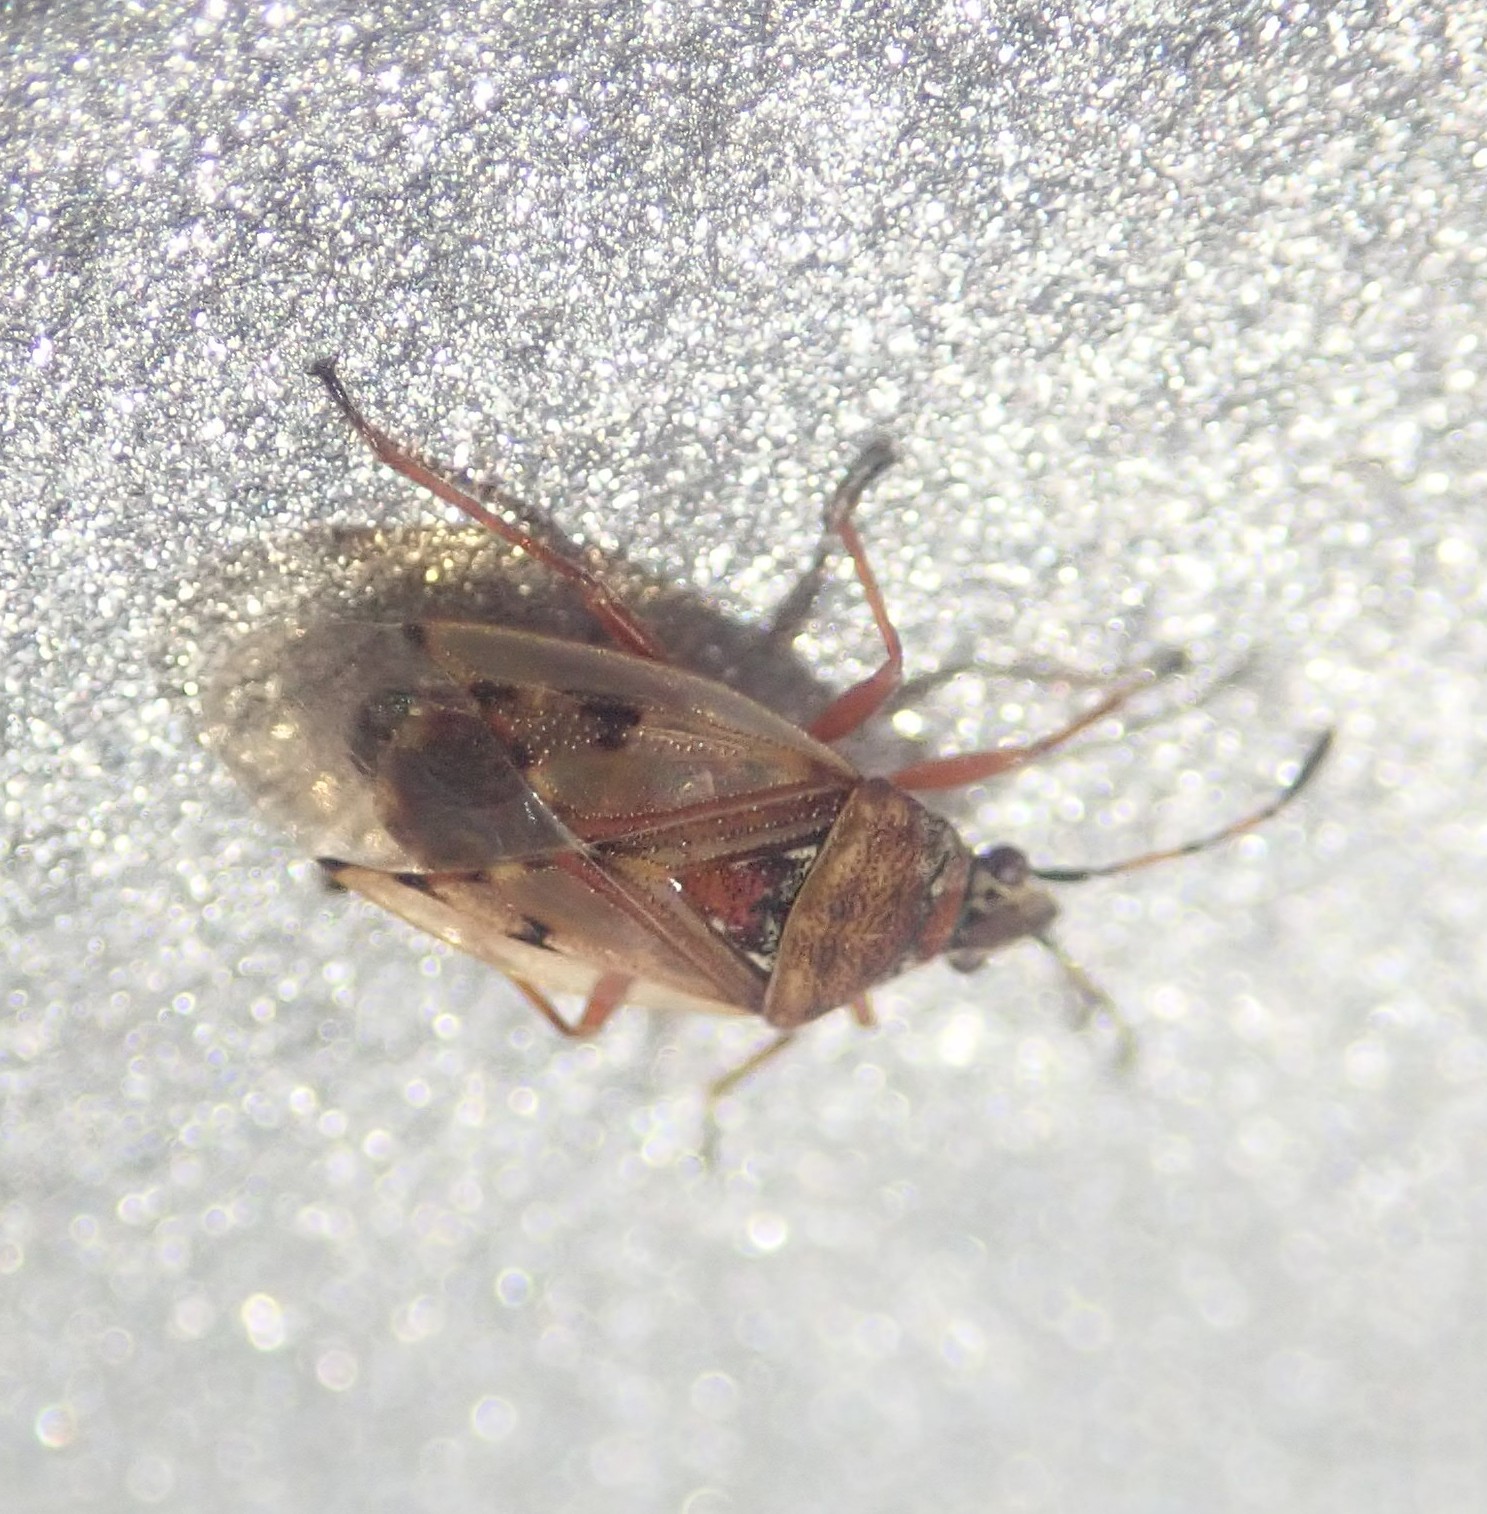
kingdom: Animalia
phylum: Arthropoda
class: Insecta
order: Hemiptera
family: Lygaeidae
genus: Kleidocerys
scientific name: Kleidocerys resedae
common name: Birch catkin bug
